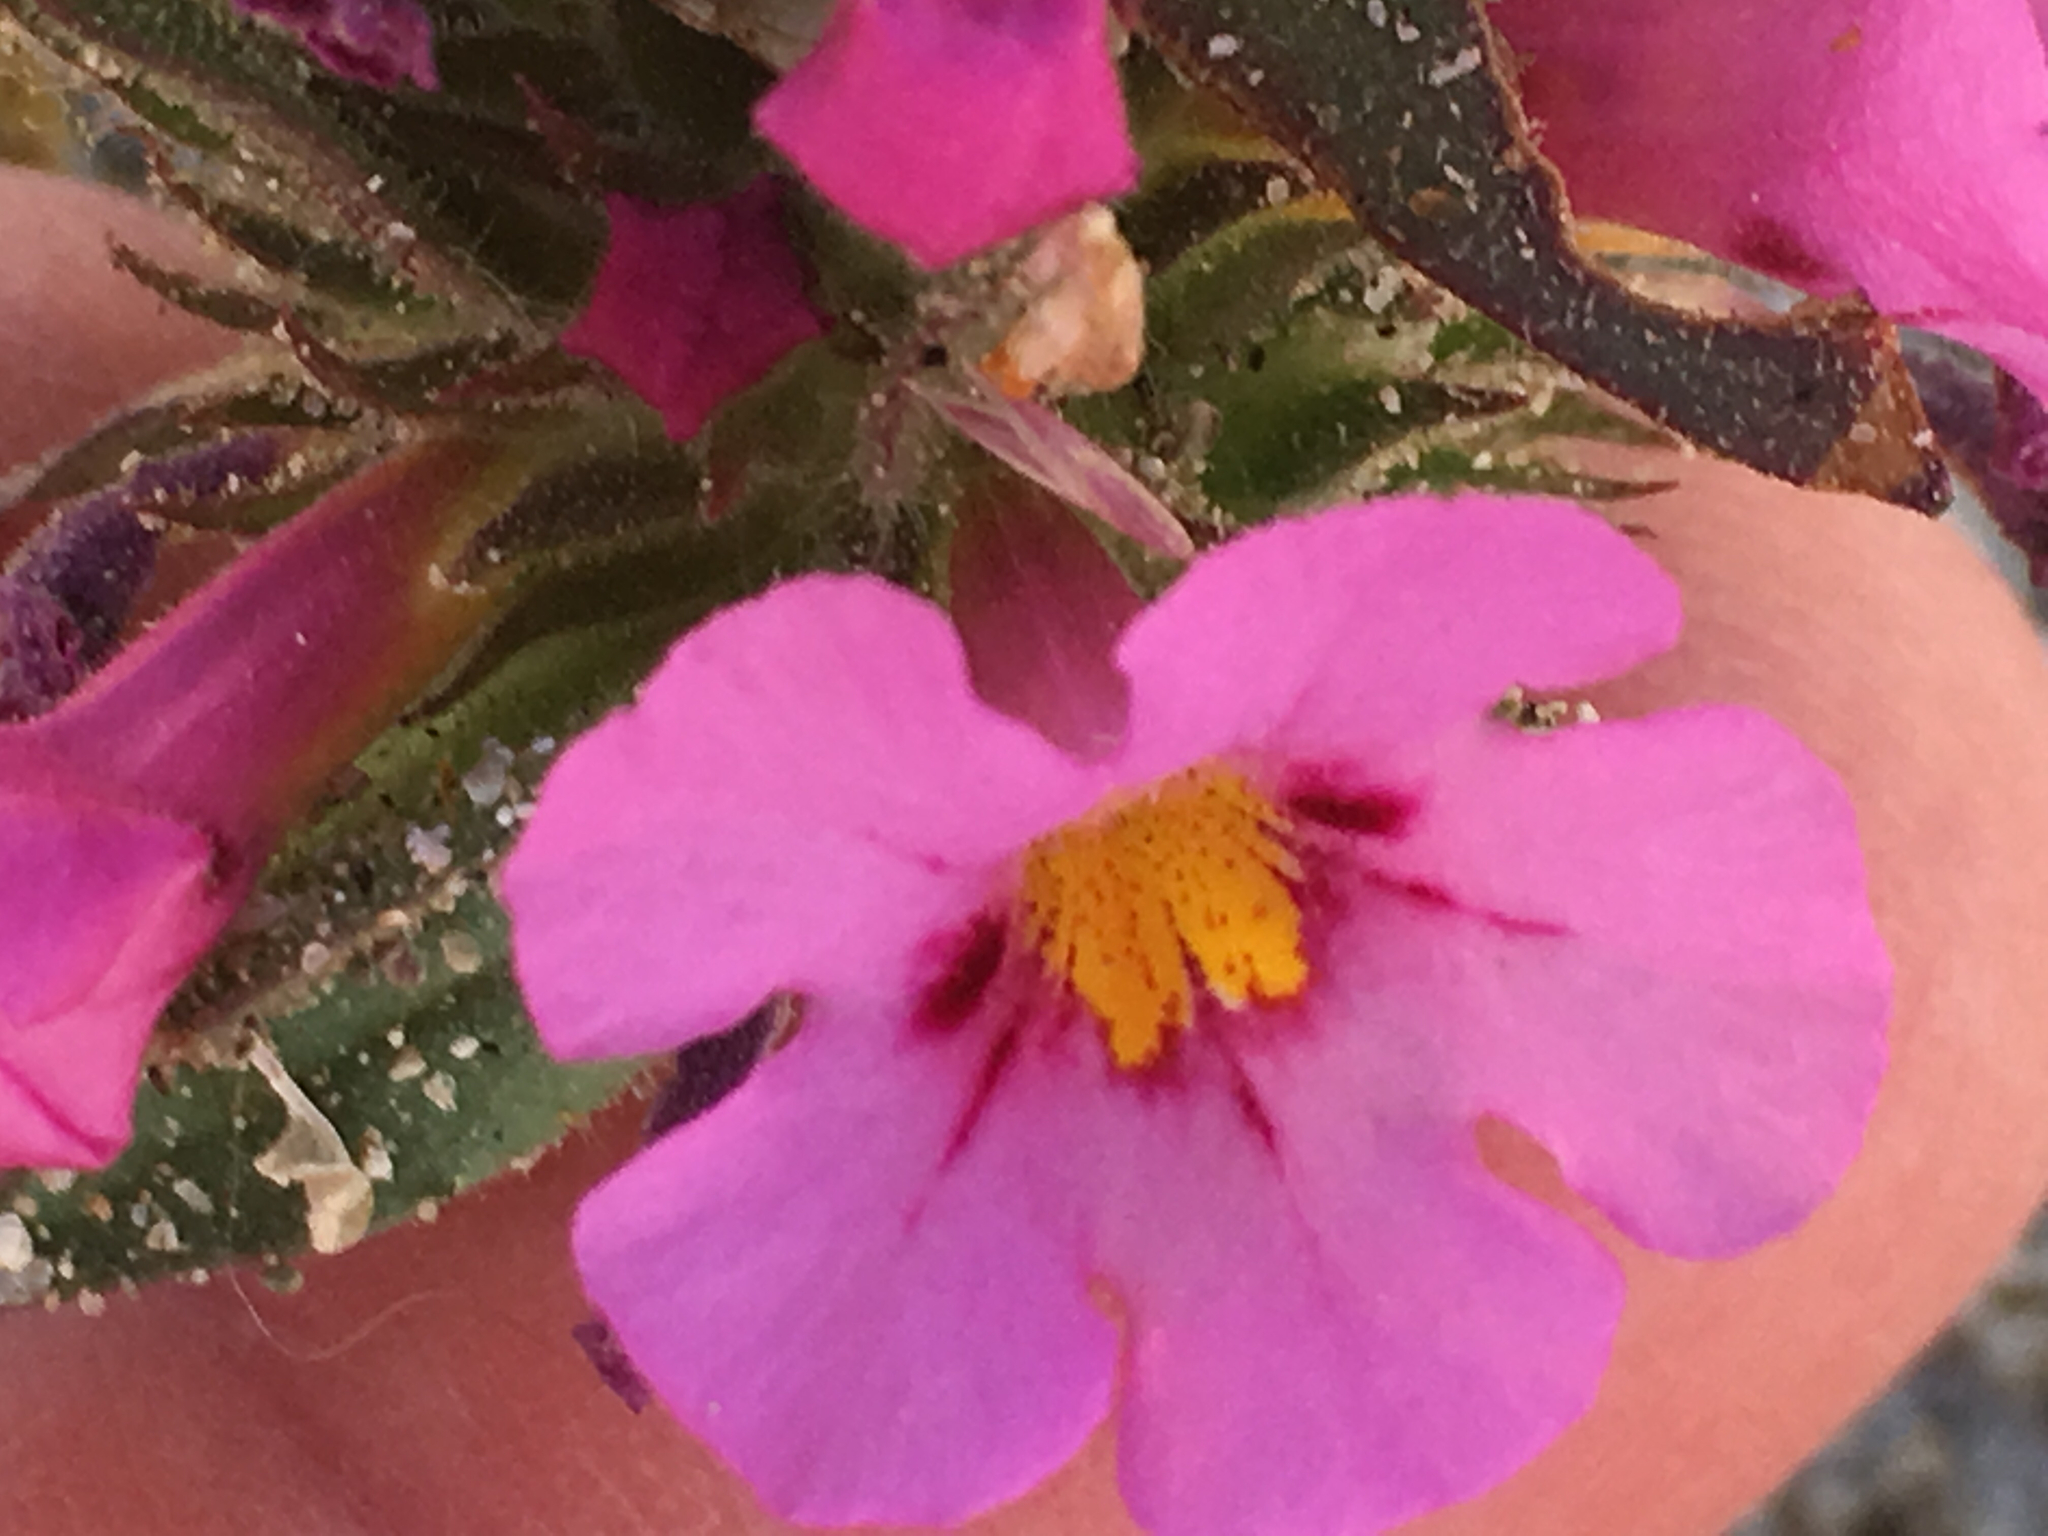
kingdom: Plantae
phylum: Tracheophyta
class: Magnoliopsida
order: Lamiales
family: Phrymaceae
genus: Diplacus
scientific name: Diplacus bigelovii
